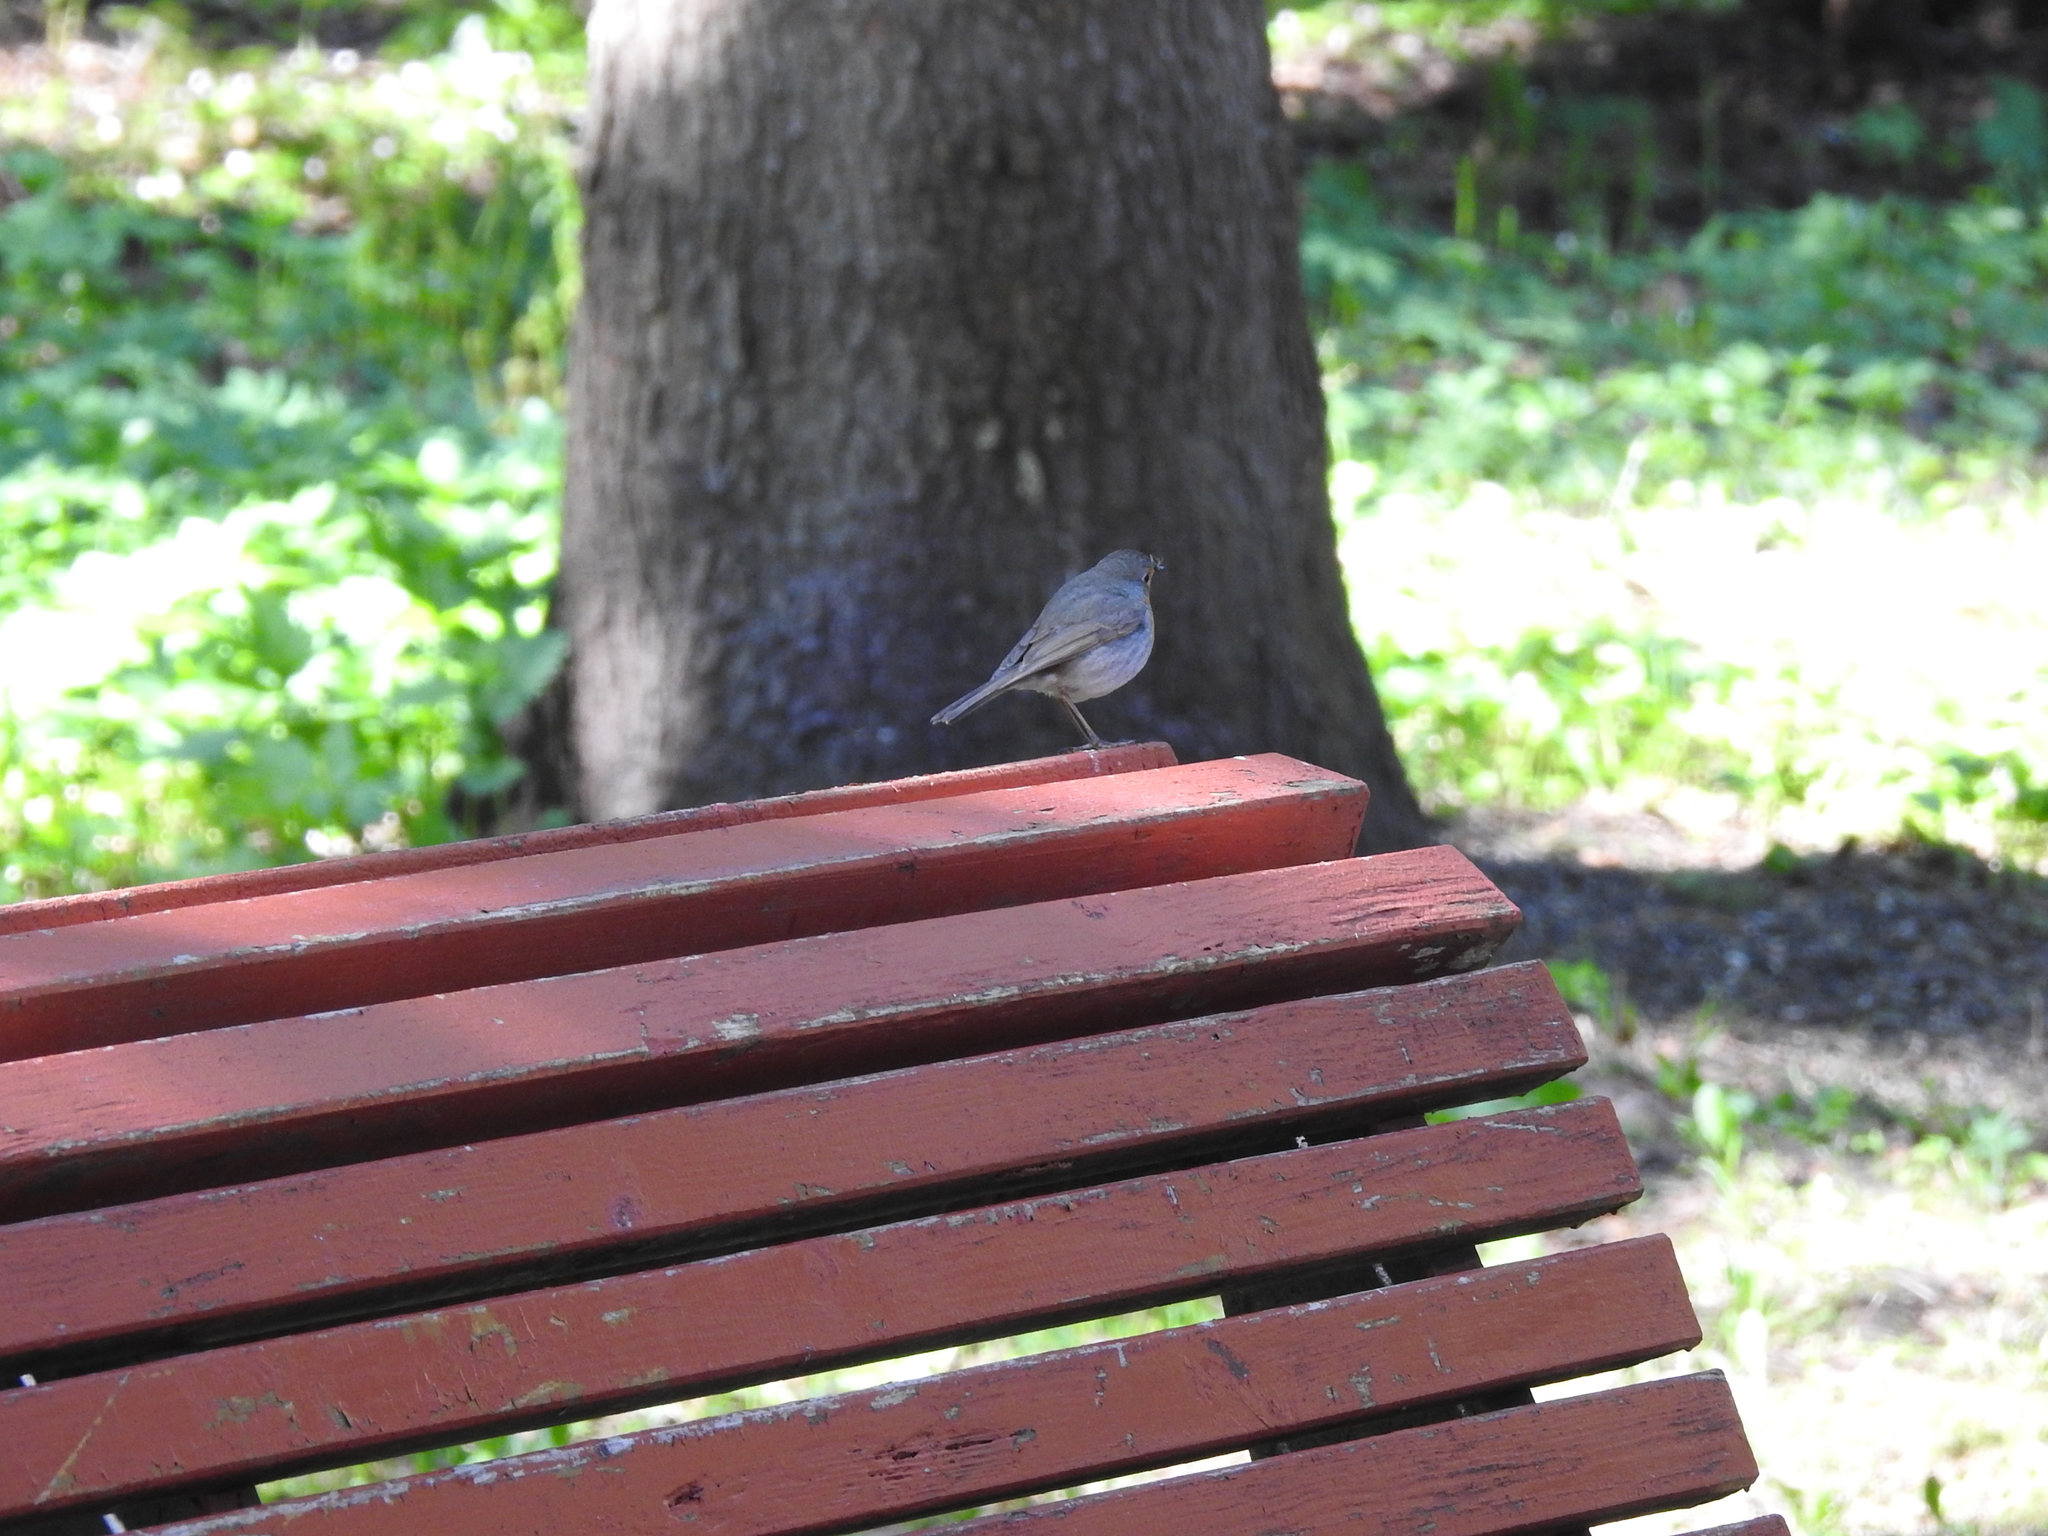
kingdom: Animalia
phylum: Chordata
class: Aves
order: Passeriformes
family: Muscicapidae
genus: Erithacus
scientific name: Erithacus rubecula
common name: European robin
